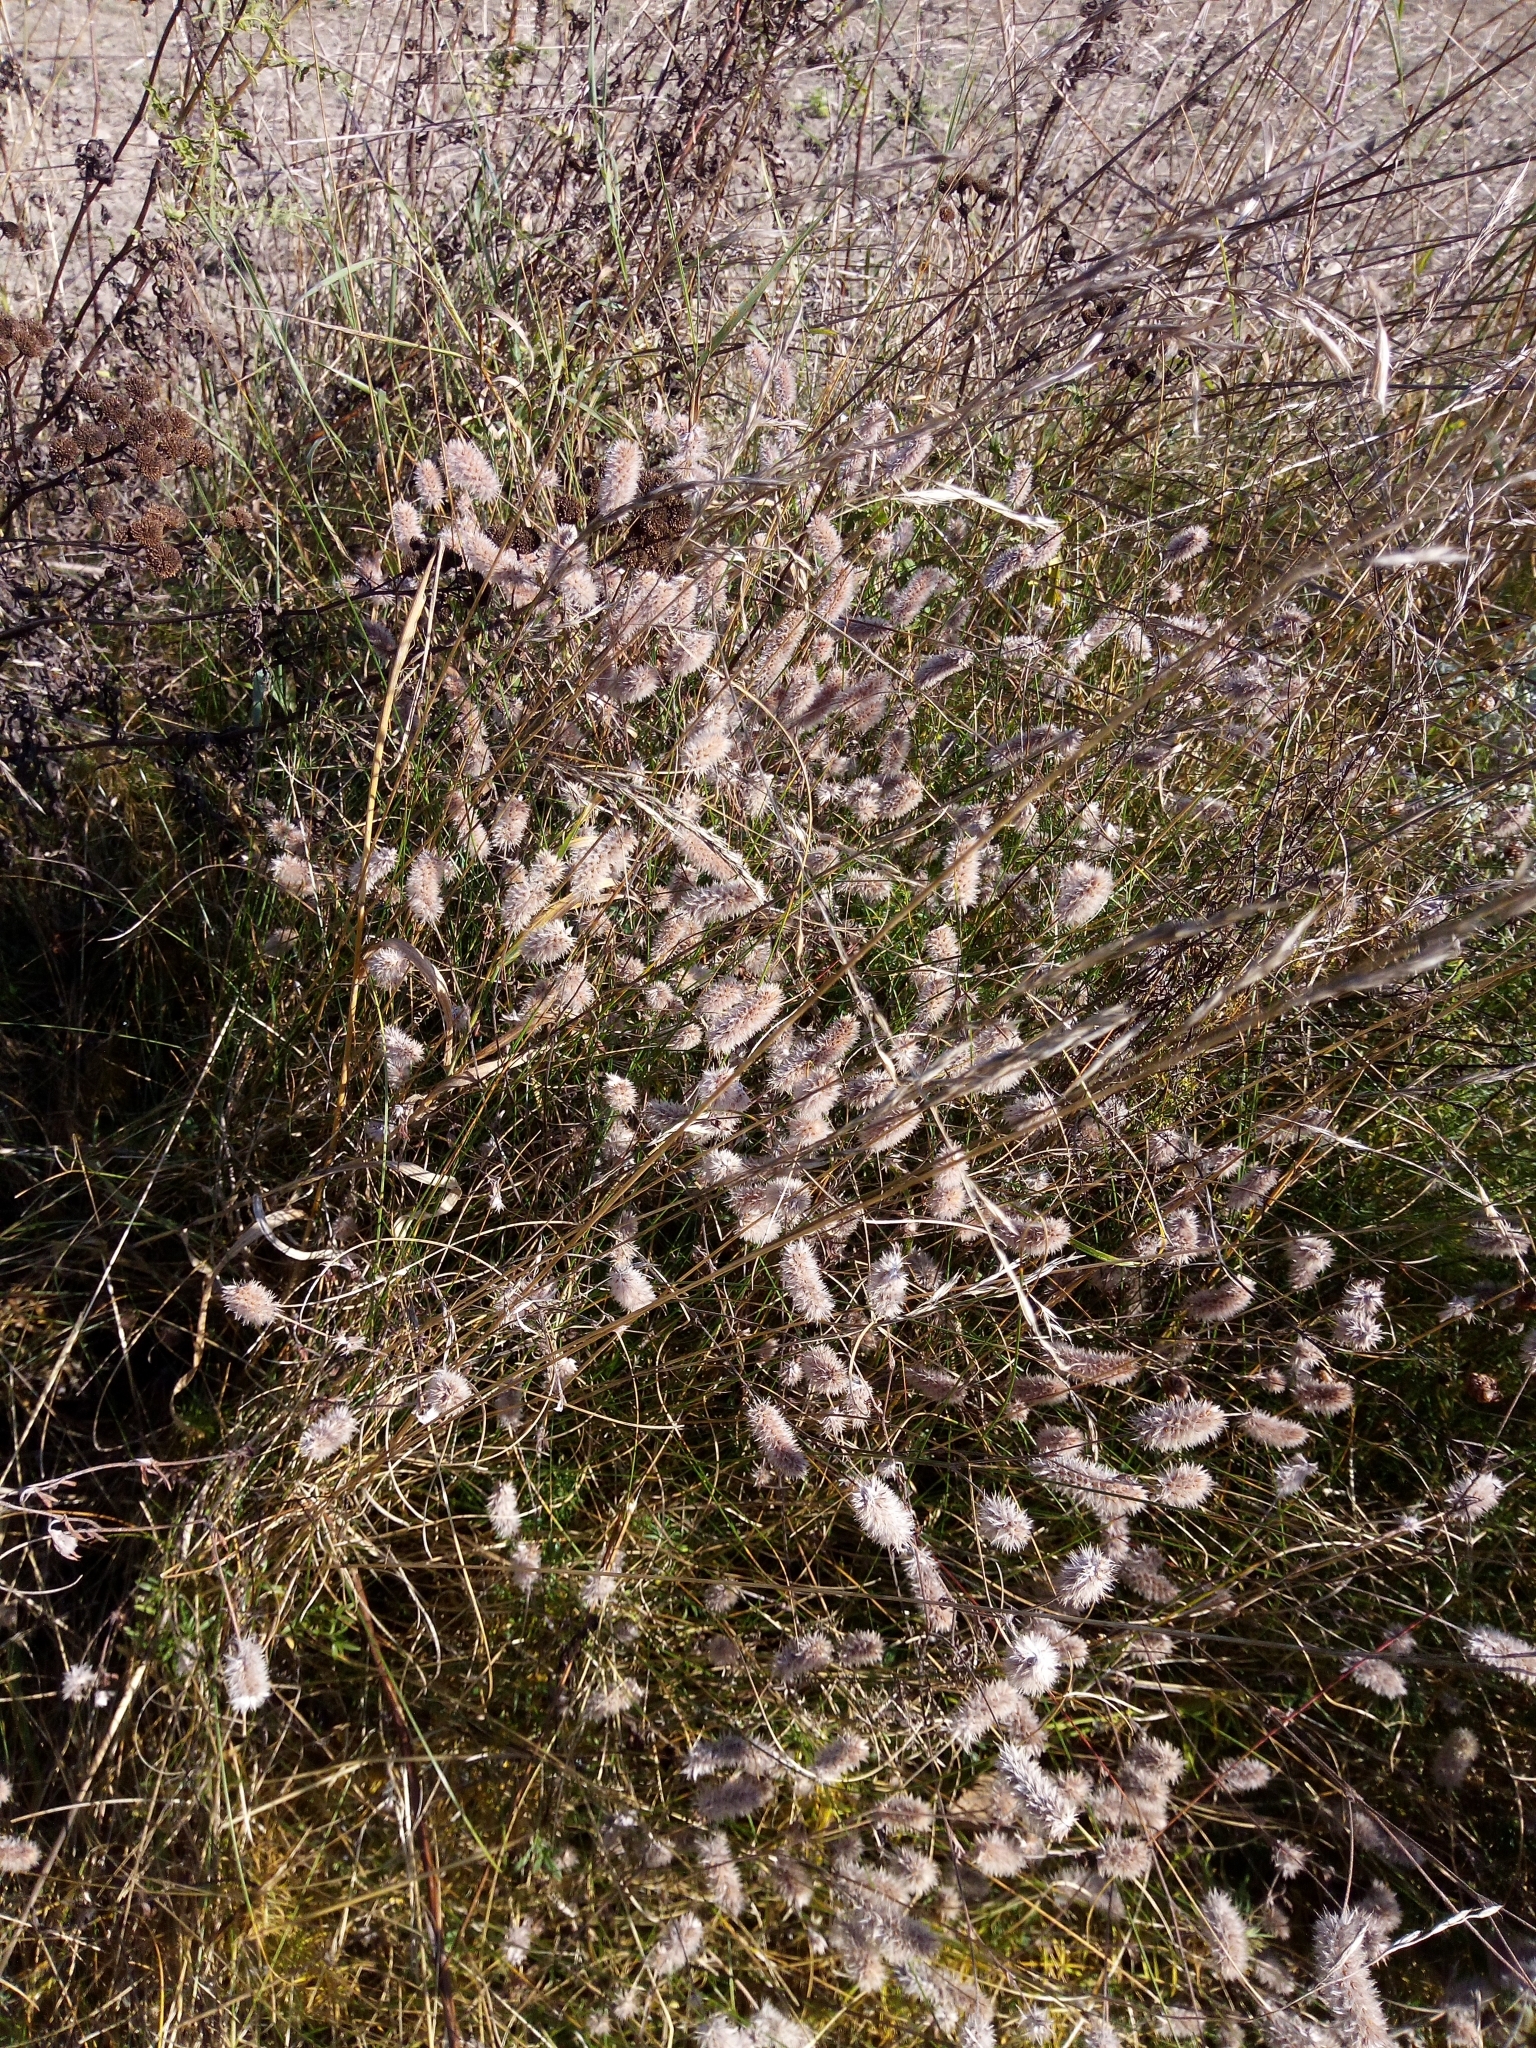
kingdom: Plantae
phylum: Tracheophyta
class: Magnoliopsida
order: Fabales
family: Fabaceae
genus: Trifolium
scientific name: Trifolium arvense
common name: Hare's-foot clover
